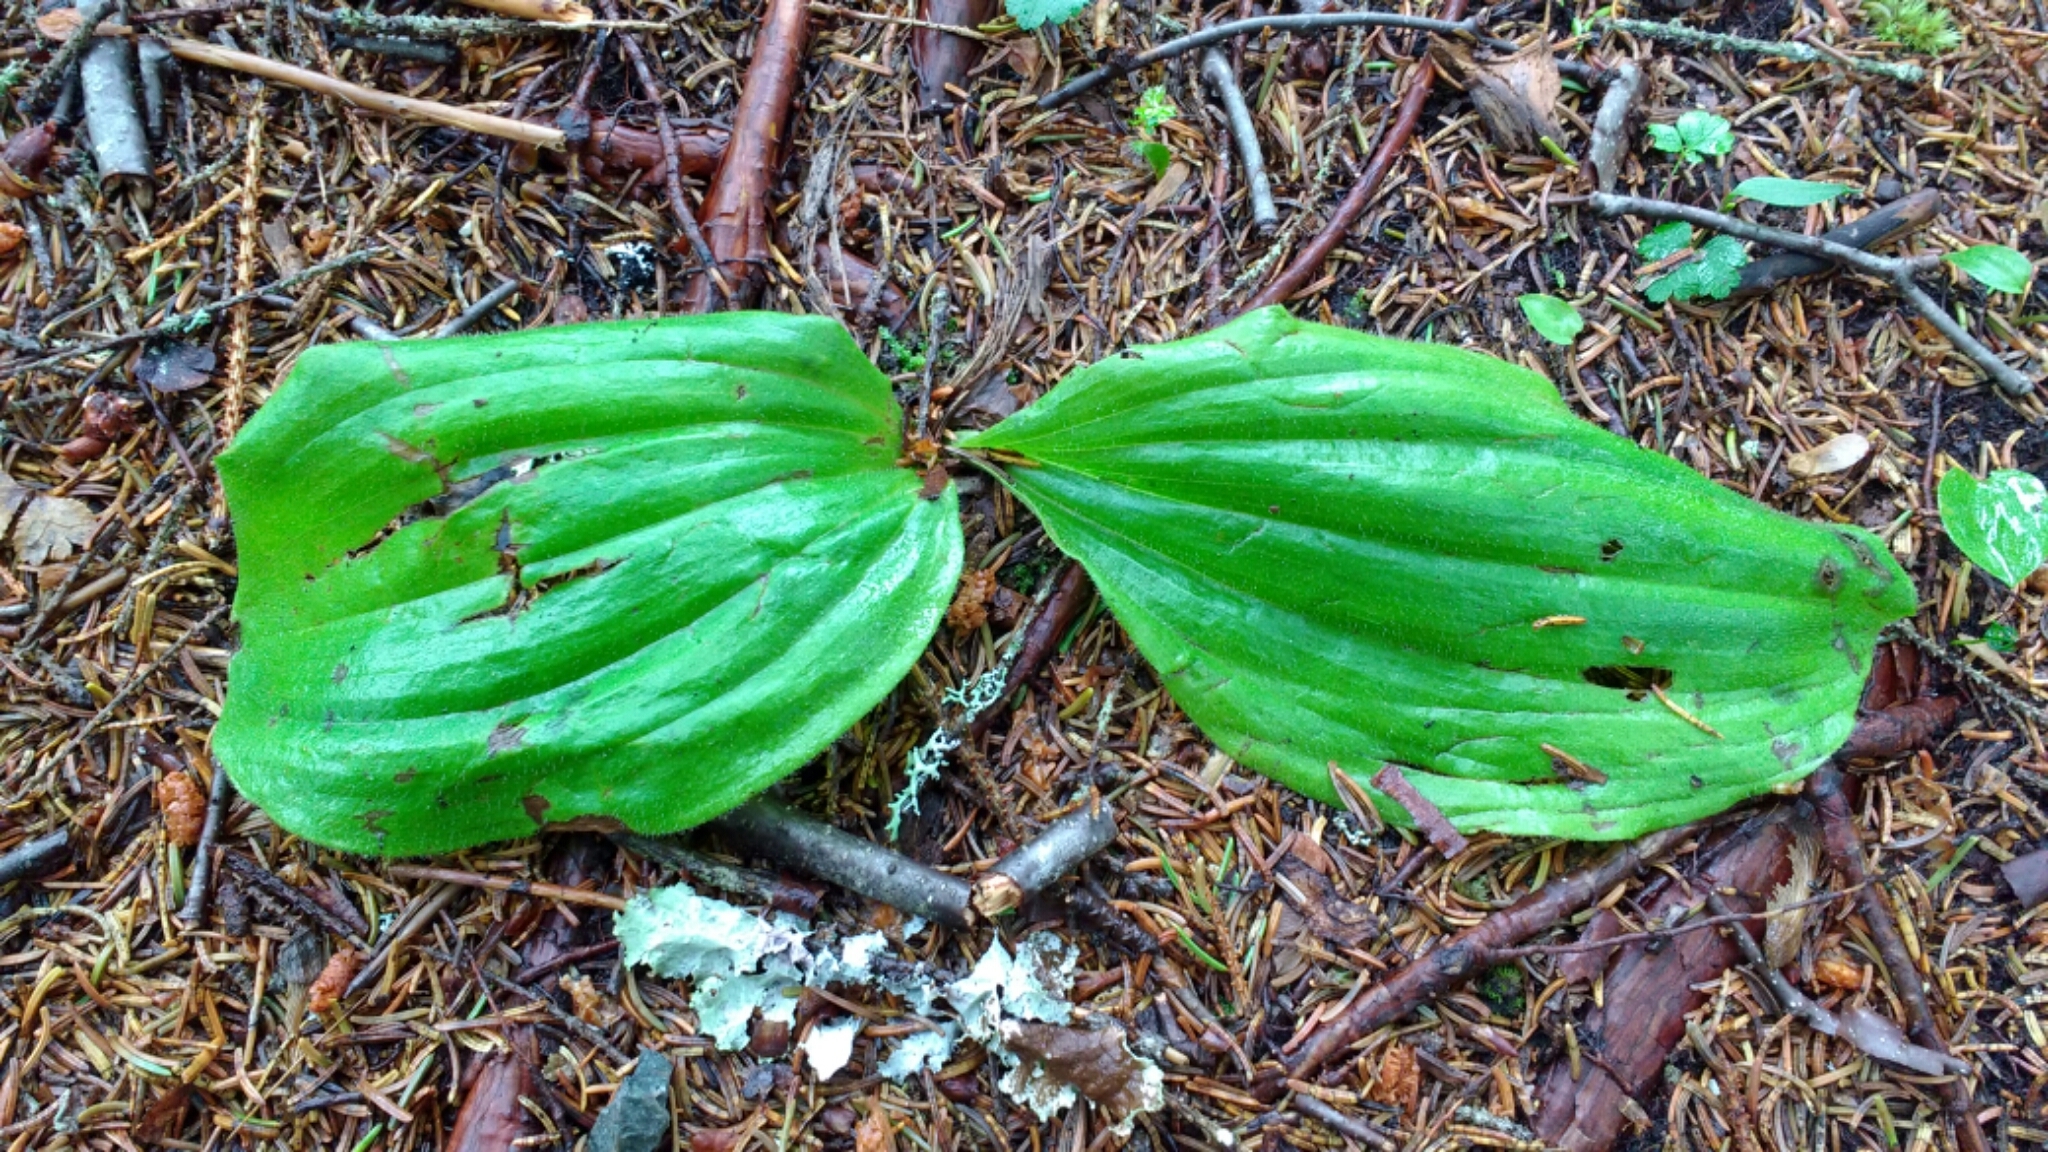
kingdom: Plantae
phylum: Tracheophyta
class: Liliopsida
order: Asparagales
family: Orchidaceae
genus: Cypripedium
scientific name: Cypripedium acaule
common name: Pink lady's-slipper
